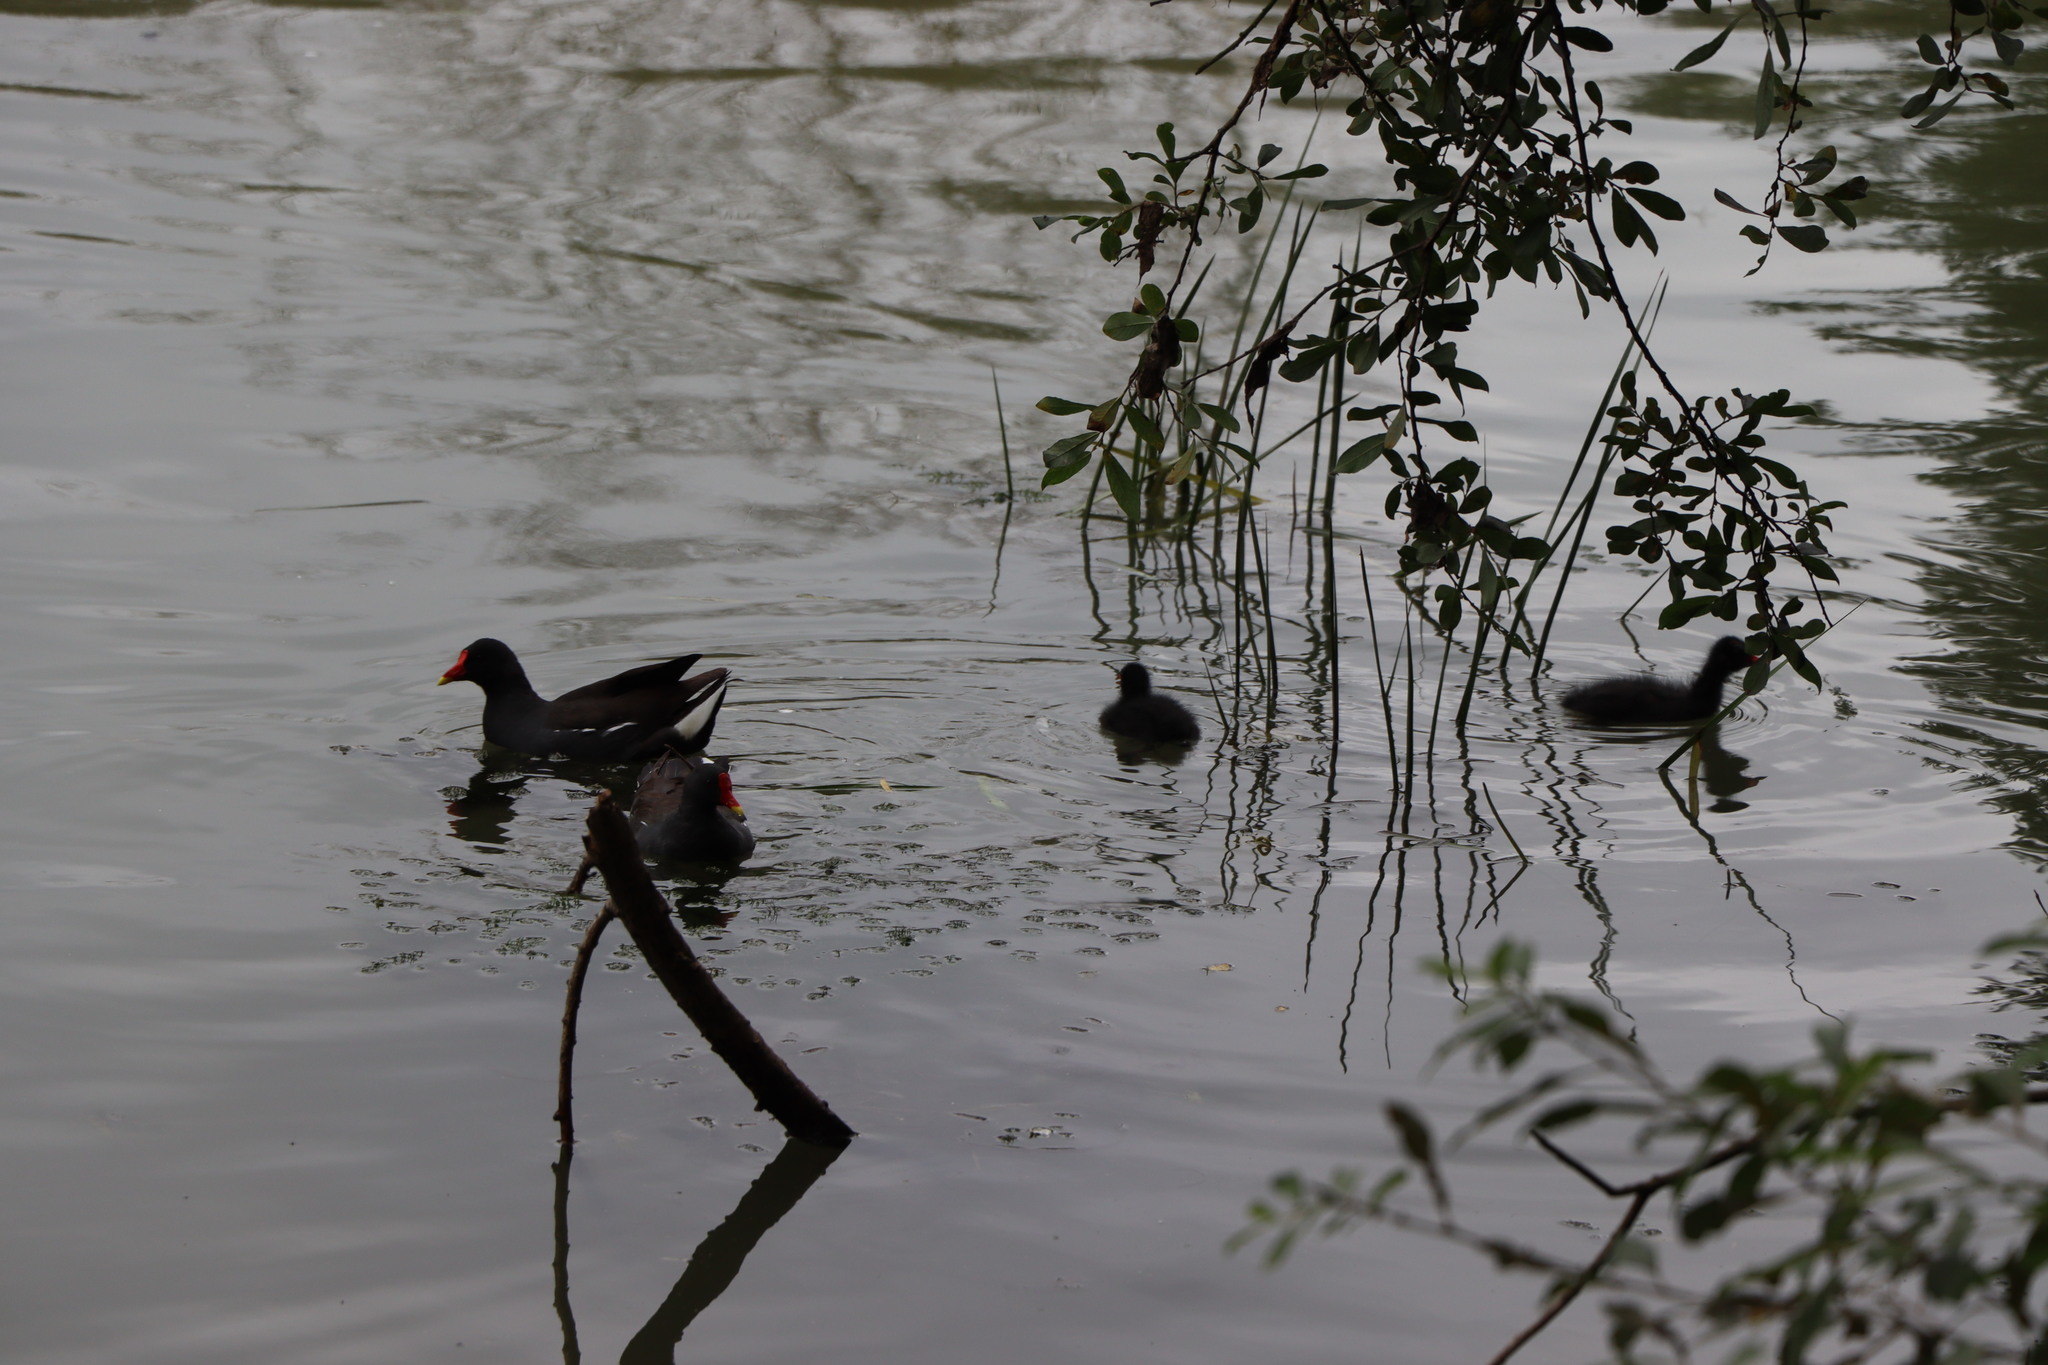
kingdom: Animalia
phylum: Chordata
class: Aves
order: Gruiformes
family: Rallidae
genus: Gallinula
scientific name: Gallinula chloropus
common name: Common moorhen
